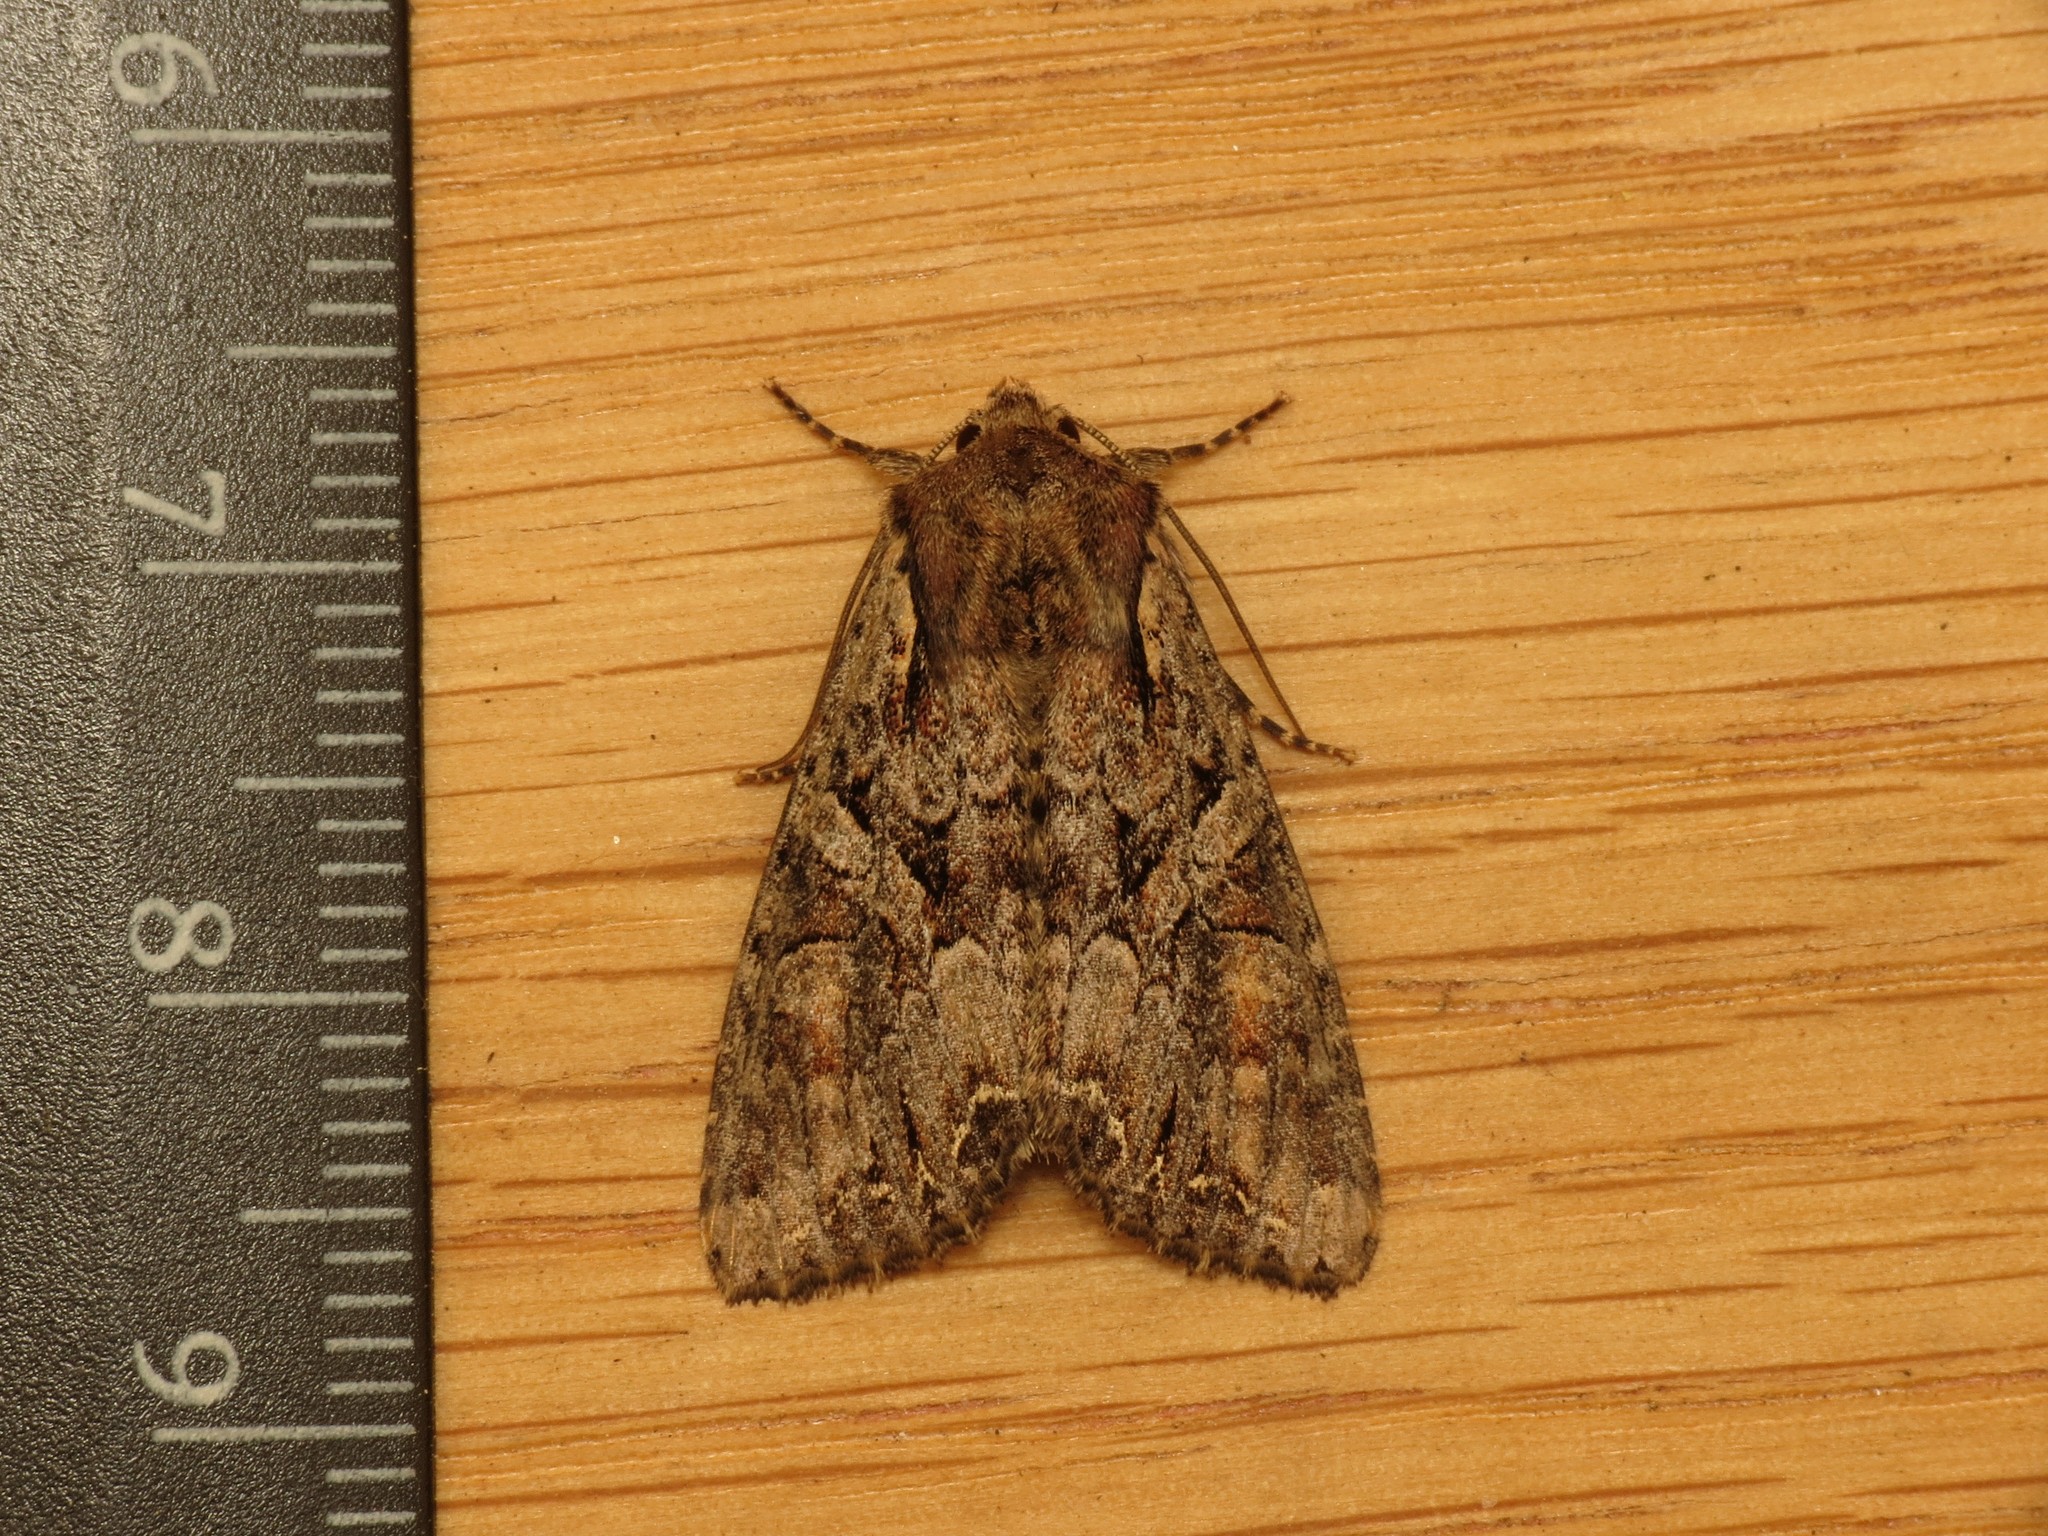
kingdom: Animalia
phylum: Arthropoda
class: Insecta
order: Lepidoptera
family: Noctuidae
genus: Lacanobia
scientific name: Lacanobia thalassina
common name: Pale-shouldered brocade
